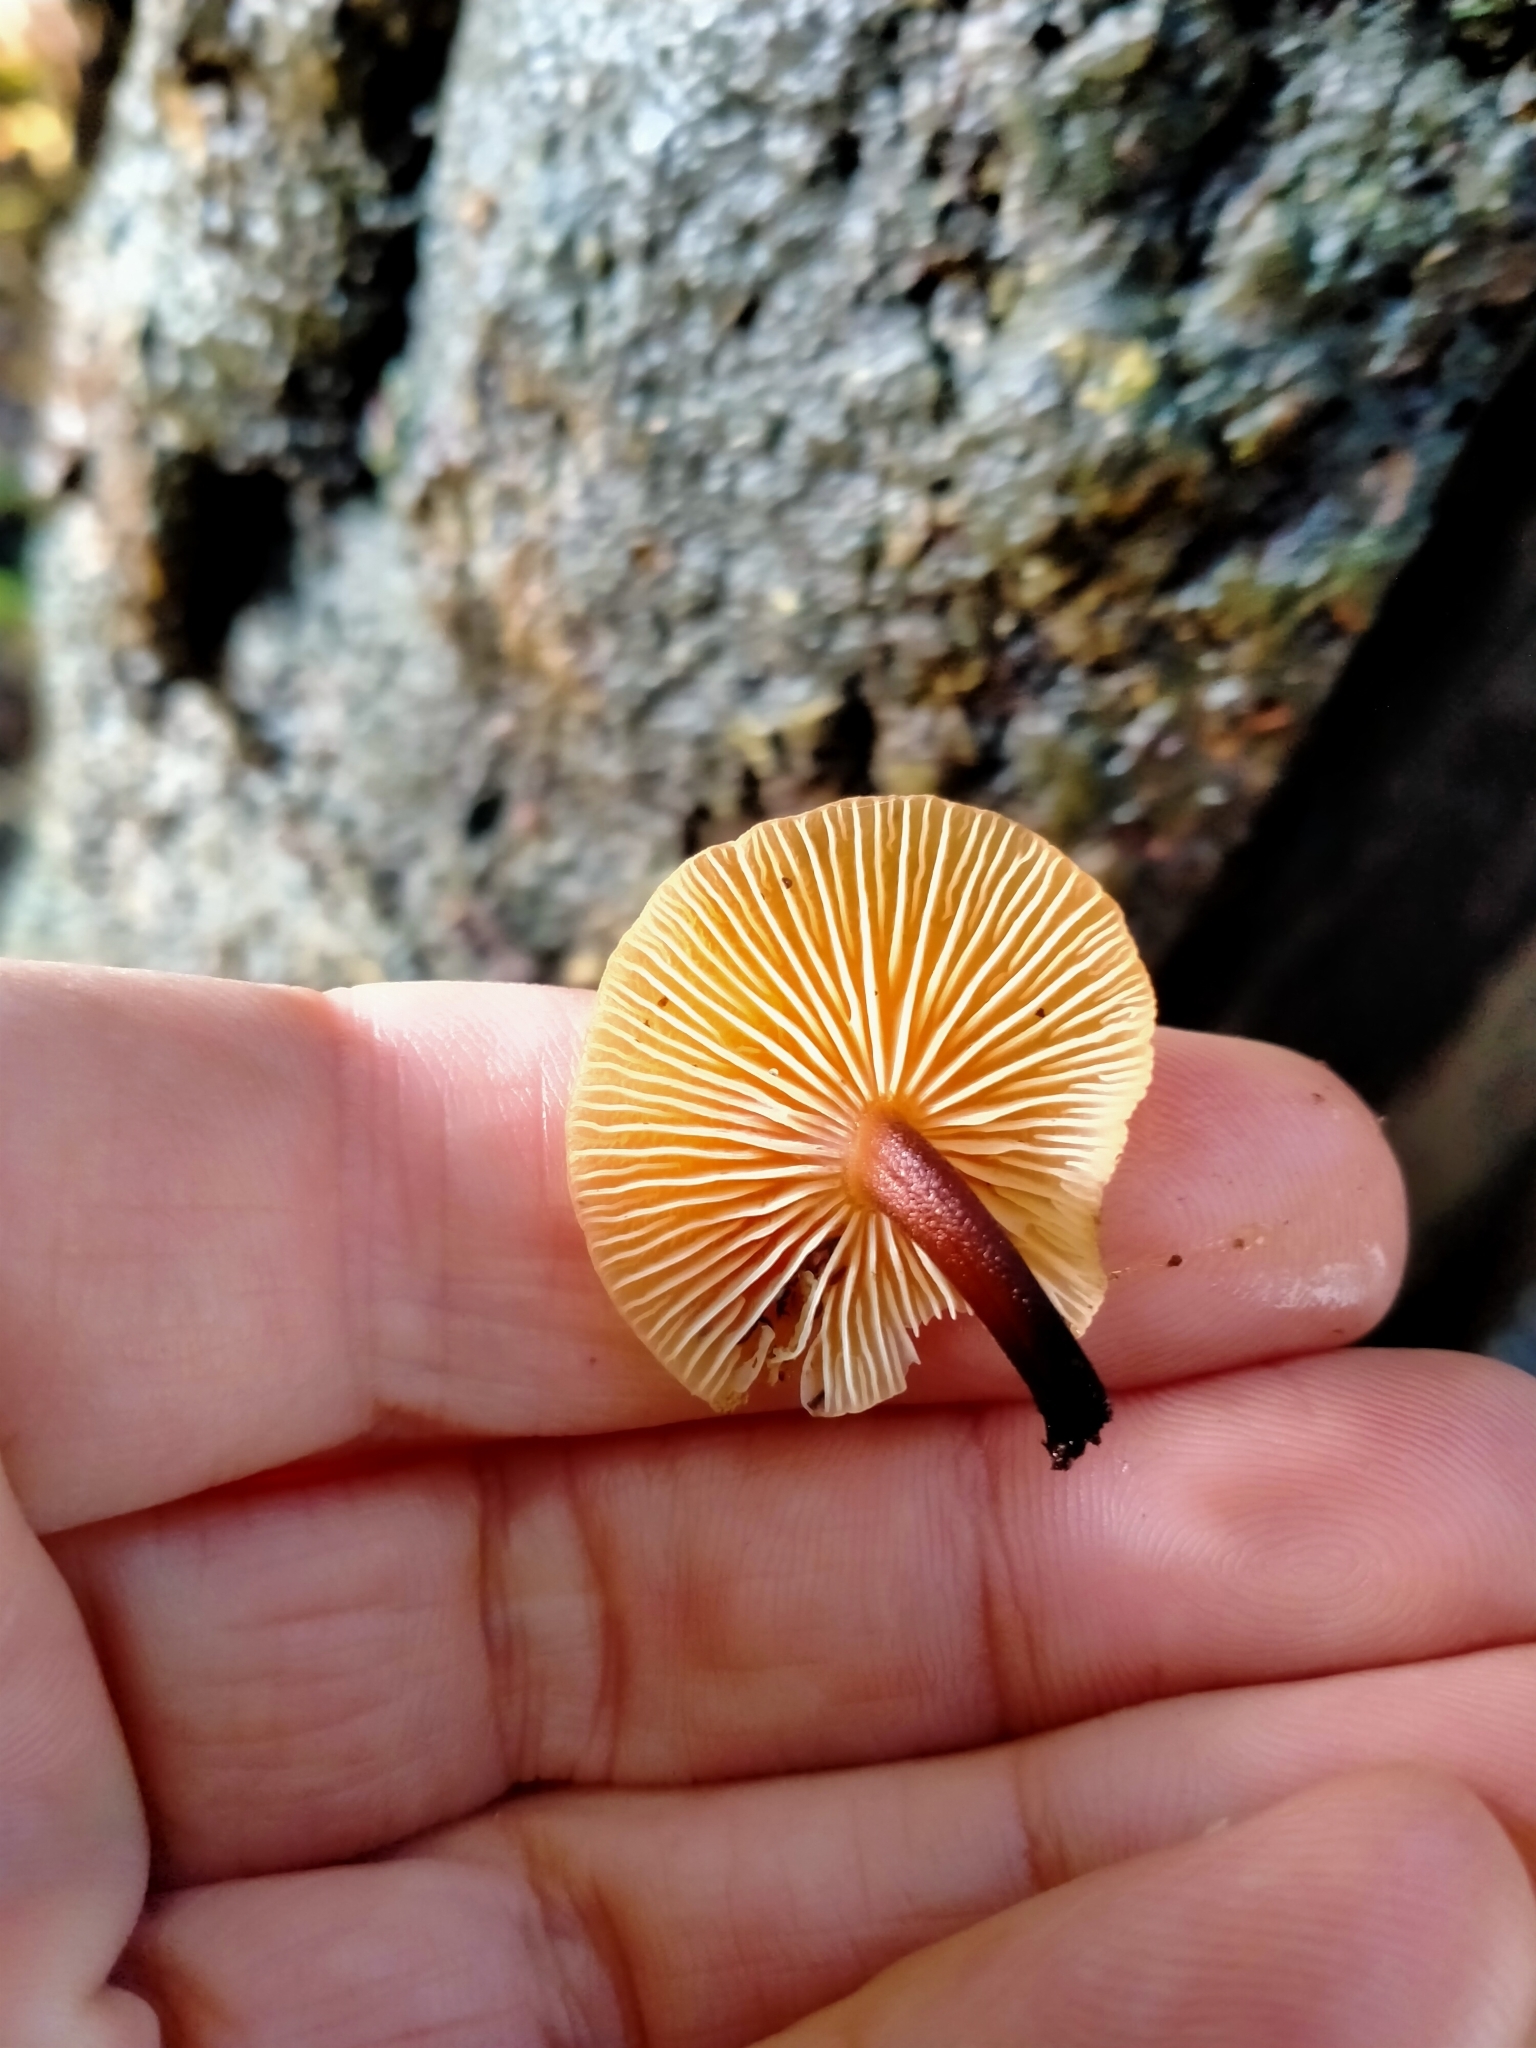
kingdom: Fungi
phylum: Basidiomycota
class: Agaricomycetes
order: Agaricales
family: Physalacriaceae
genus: Flammulina
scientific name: Flammulina velutipes
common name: Velvet shank
